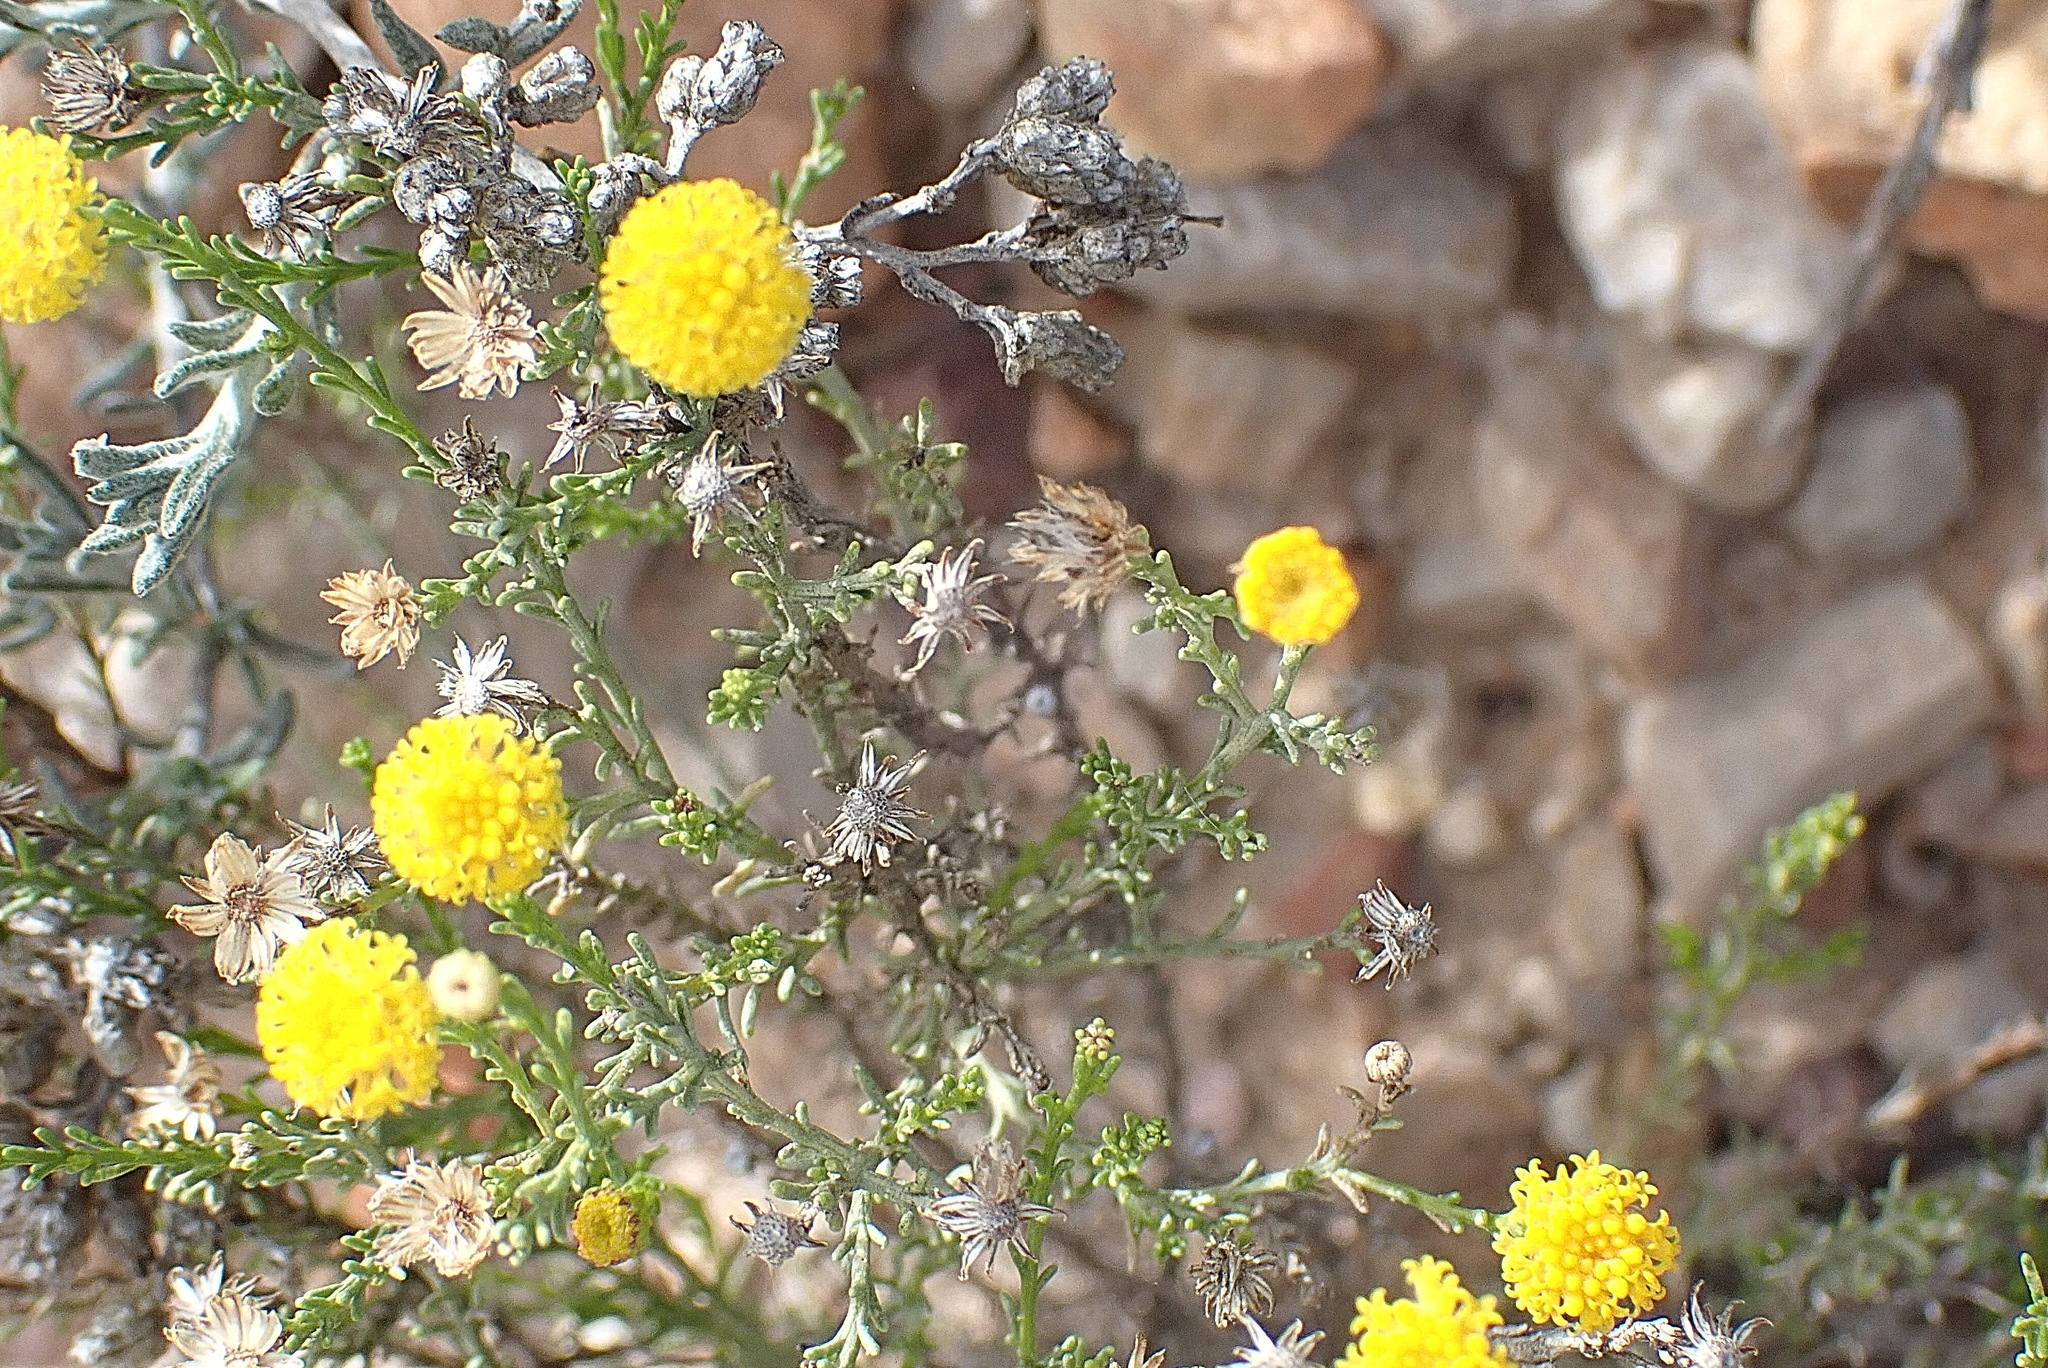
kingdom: Plantae
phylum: Tracheophyta
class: Magnoliopsida
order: Asterales
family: Asteraceae
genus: Chrysocoma
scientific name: Chrysocoma ciliata
